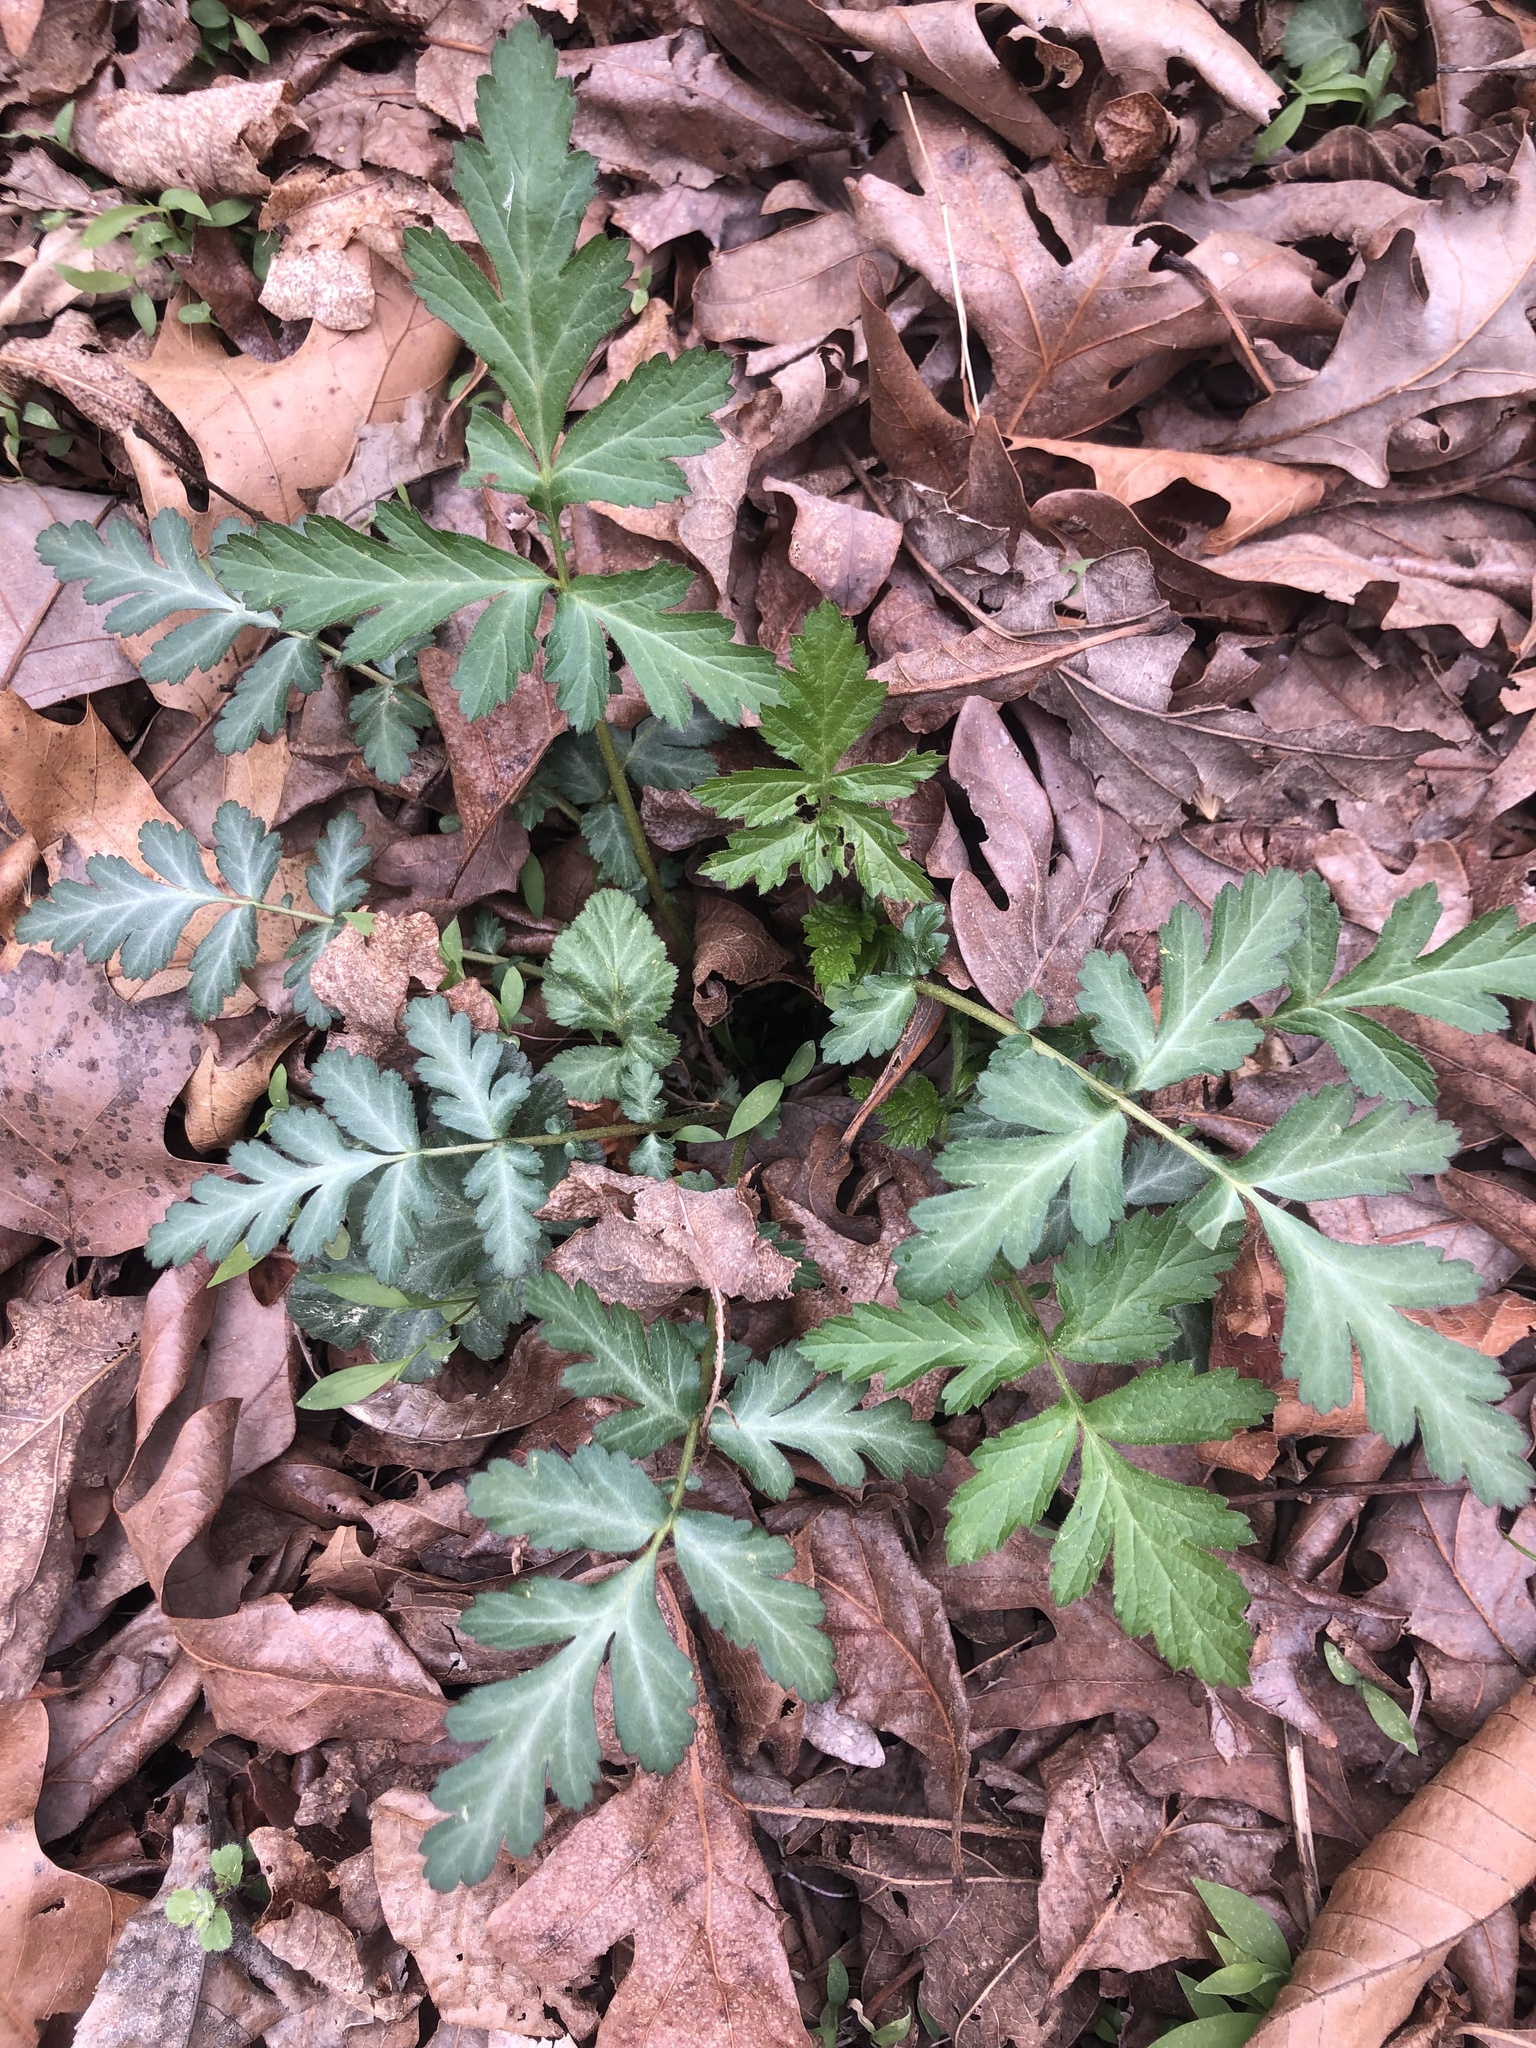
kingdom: Plantae
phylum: Tracheophyta
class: Magnoliopsida
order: Rosales
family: Rosaceae
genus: Geum
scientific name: Geum canadense
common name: White avens
